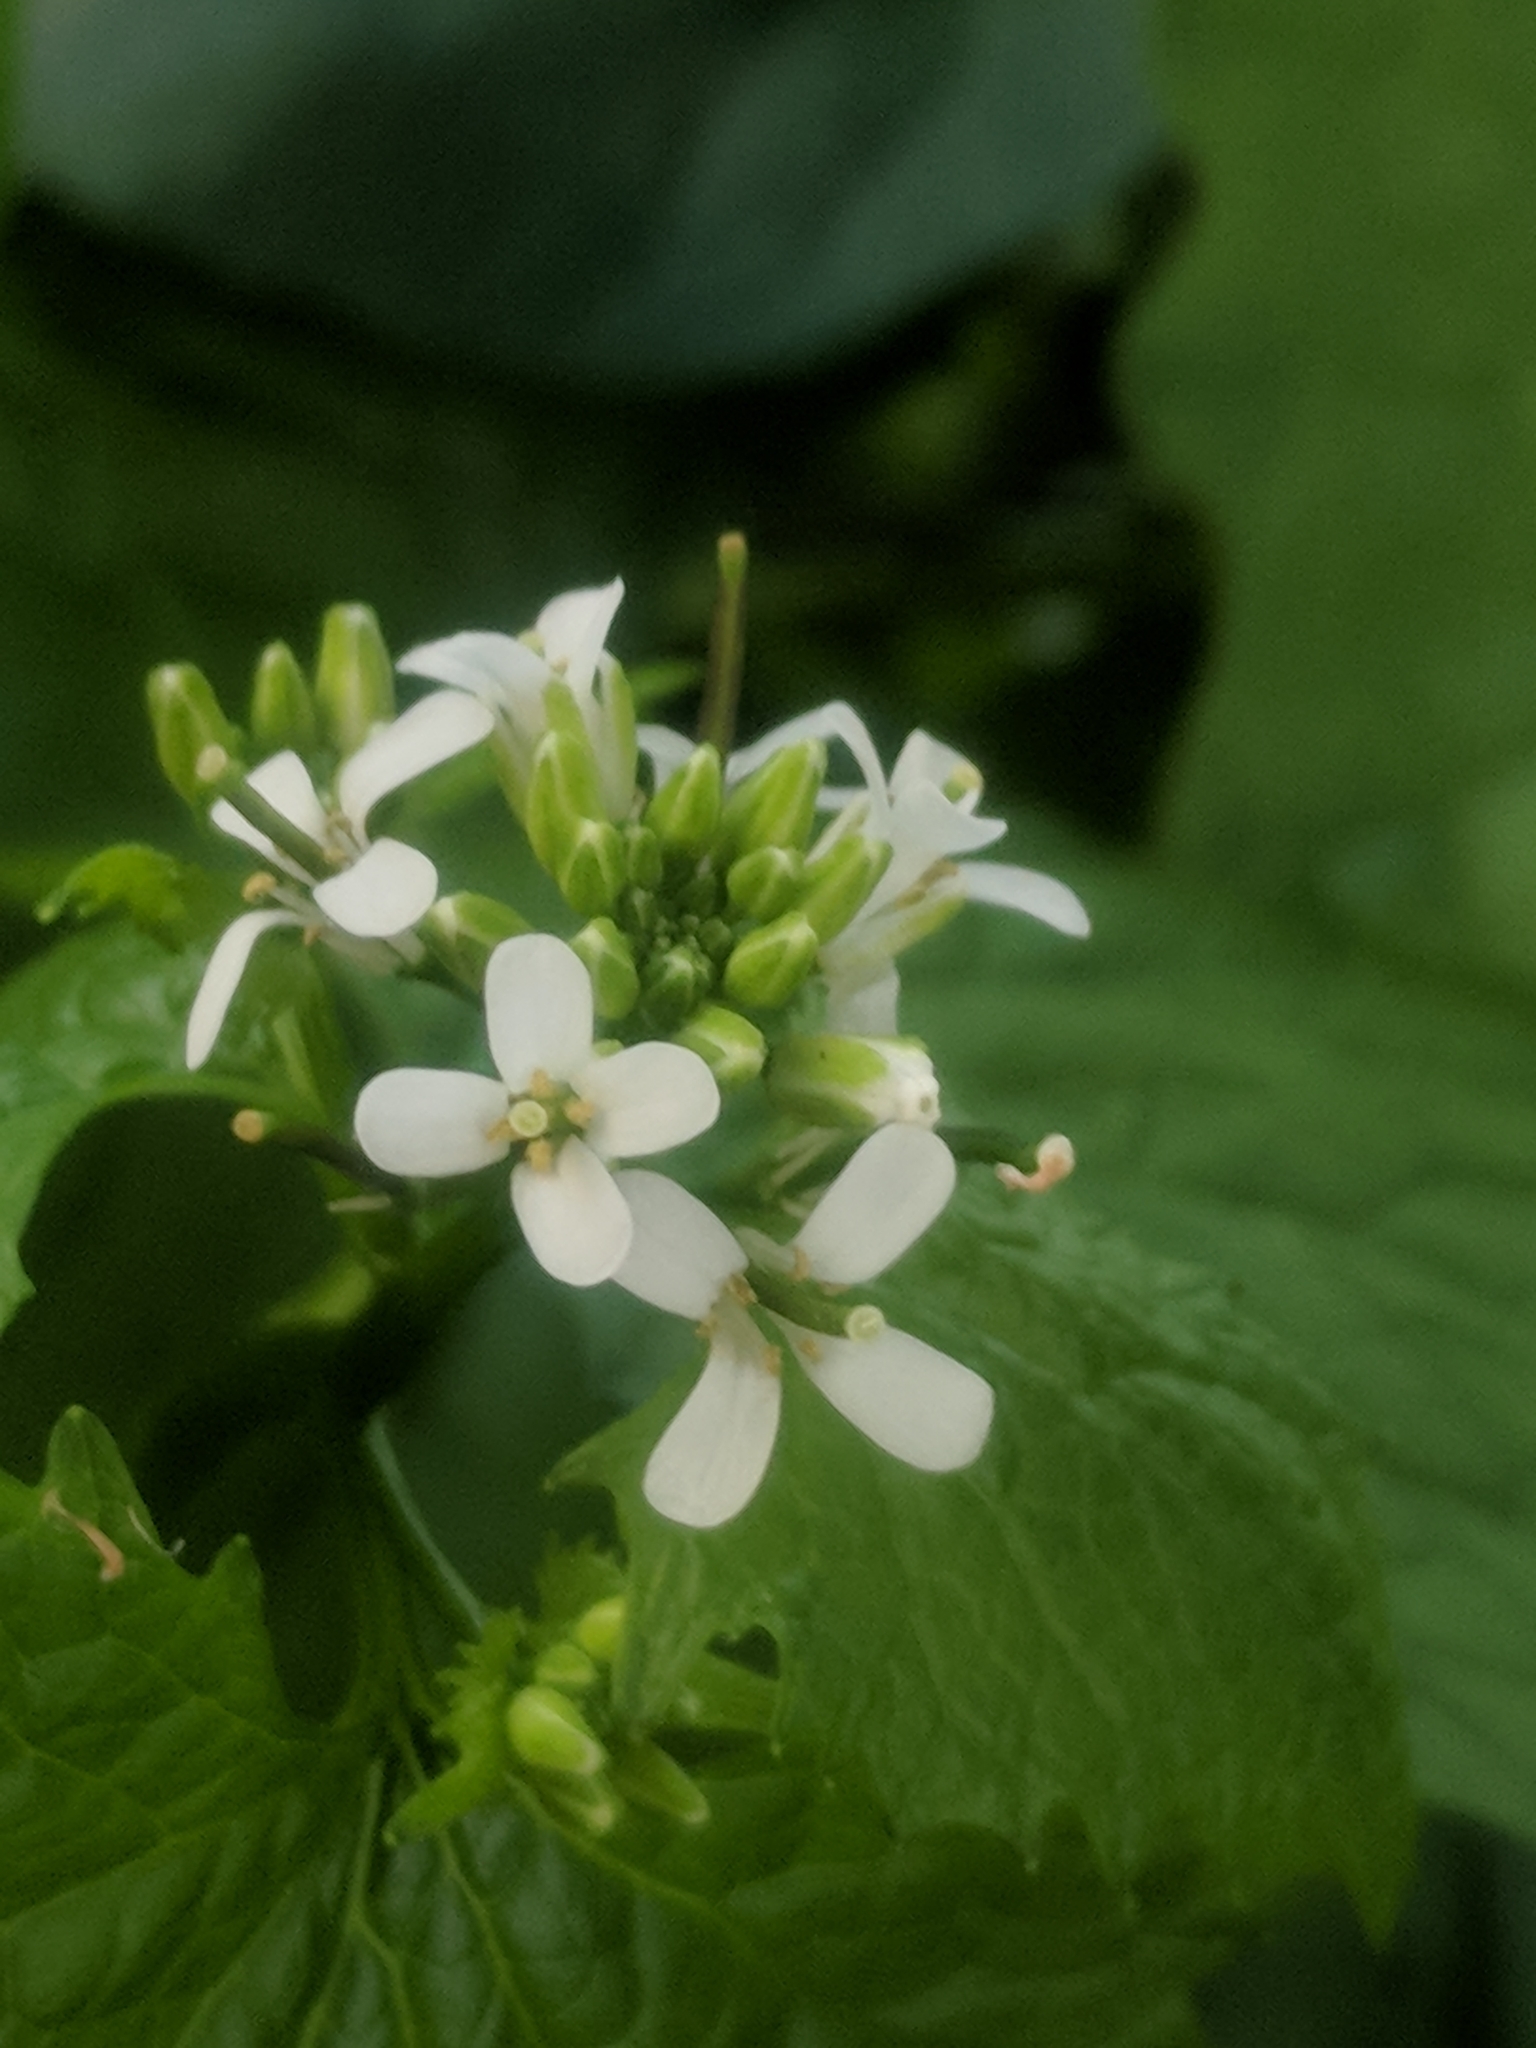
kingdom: Plantae
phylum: Tracheophyta
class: Magnoliopsida
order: Brassicales
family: Brassicaceae
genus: Alliaria
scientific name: Alliaria petiolata
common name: Garlic mustard
